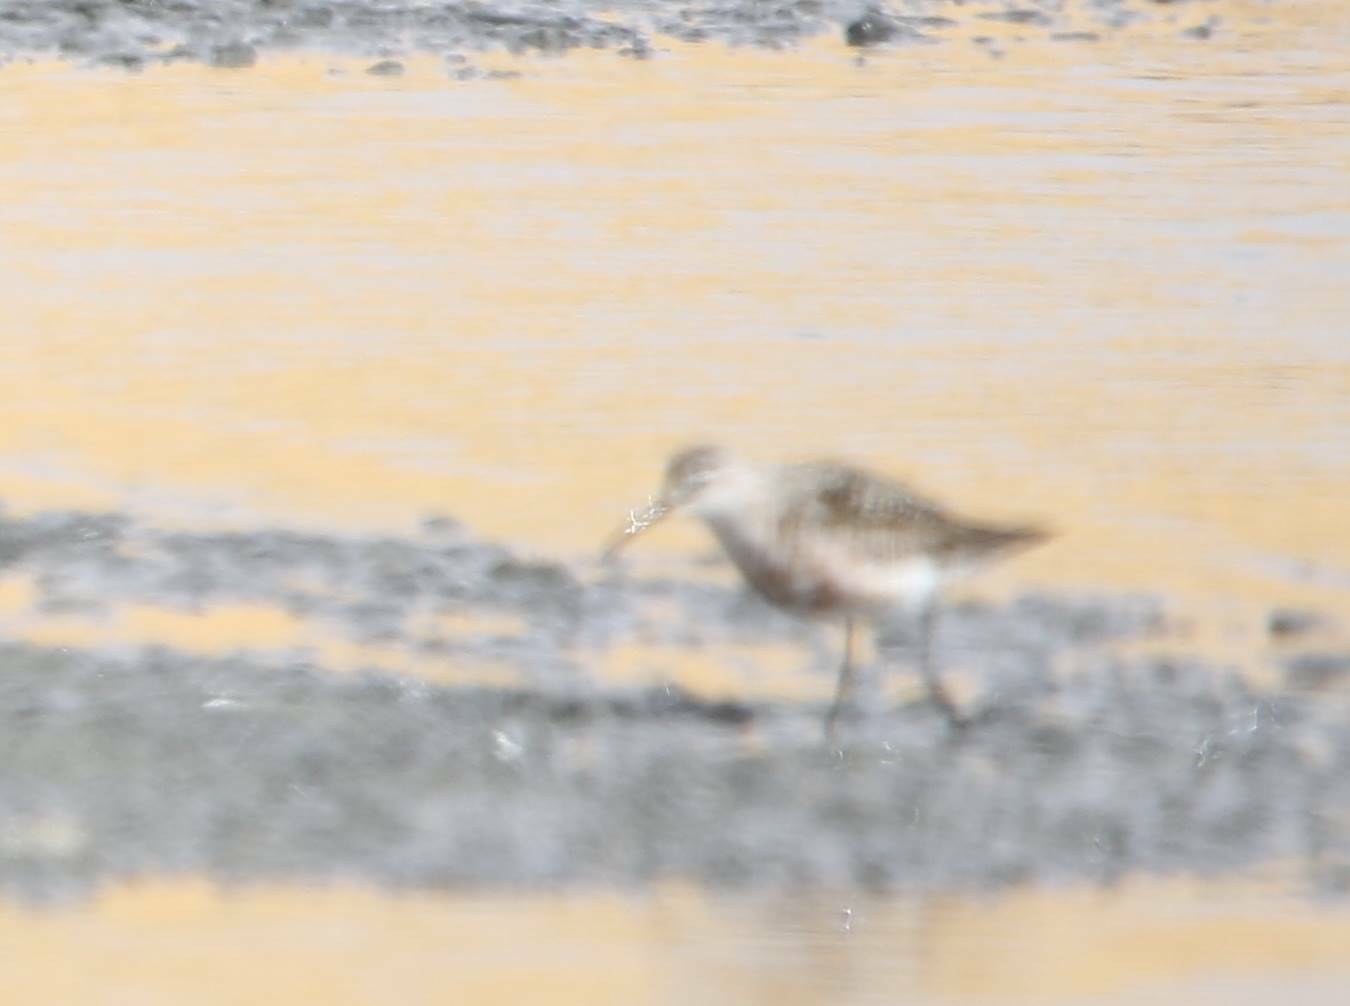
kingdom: Animalia
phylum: Chordata
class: Aves
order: Charadriiformes
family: Scolopacidae
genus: Calidris
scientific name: Calidris ferruginea
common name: Curlew sandpiper
